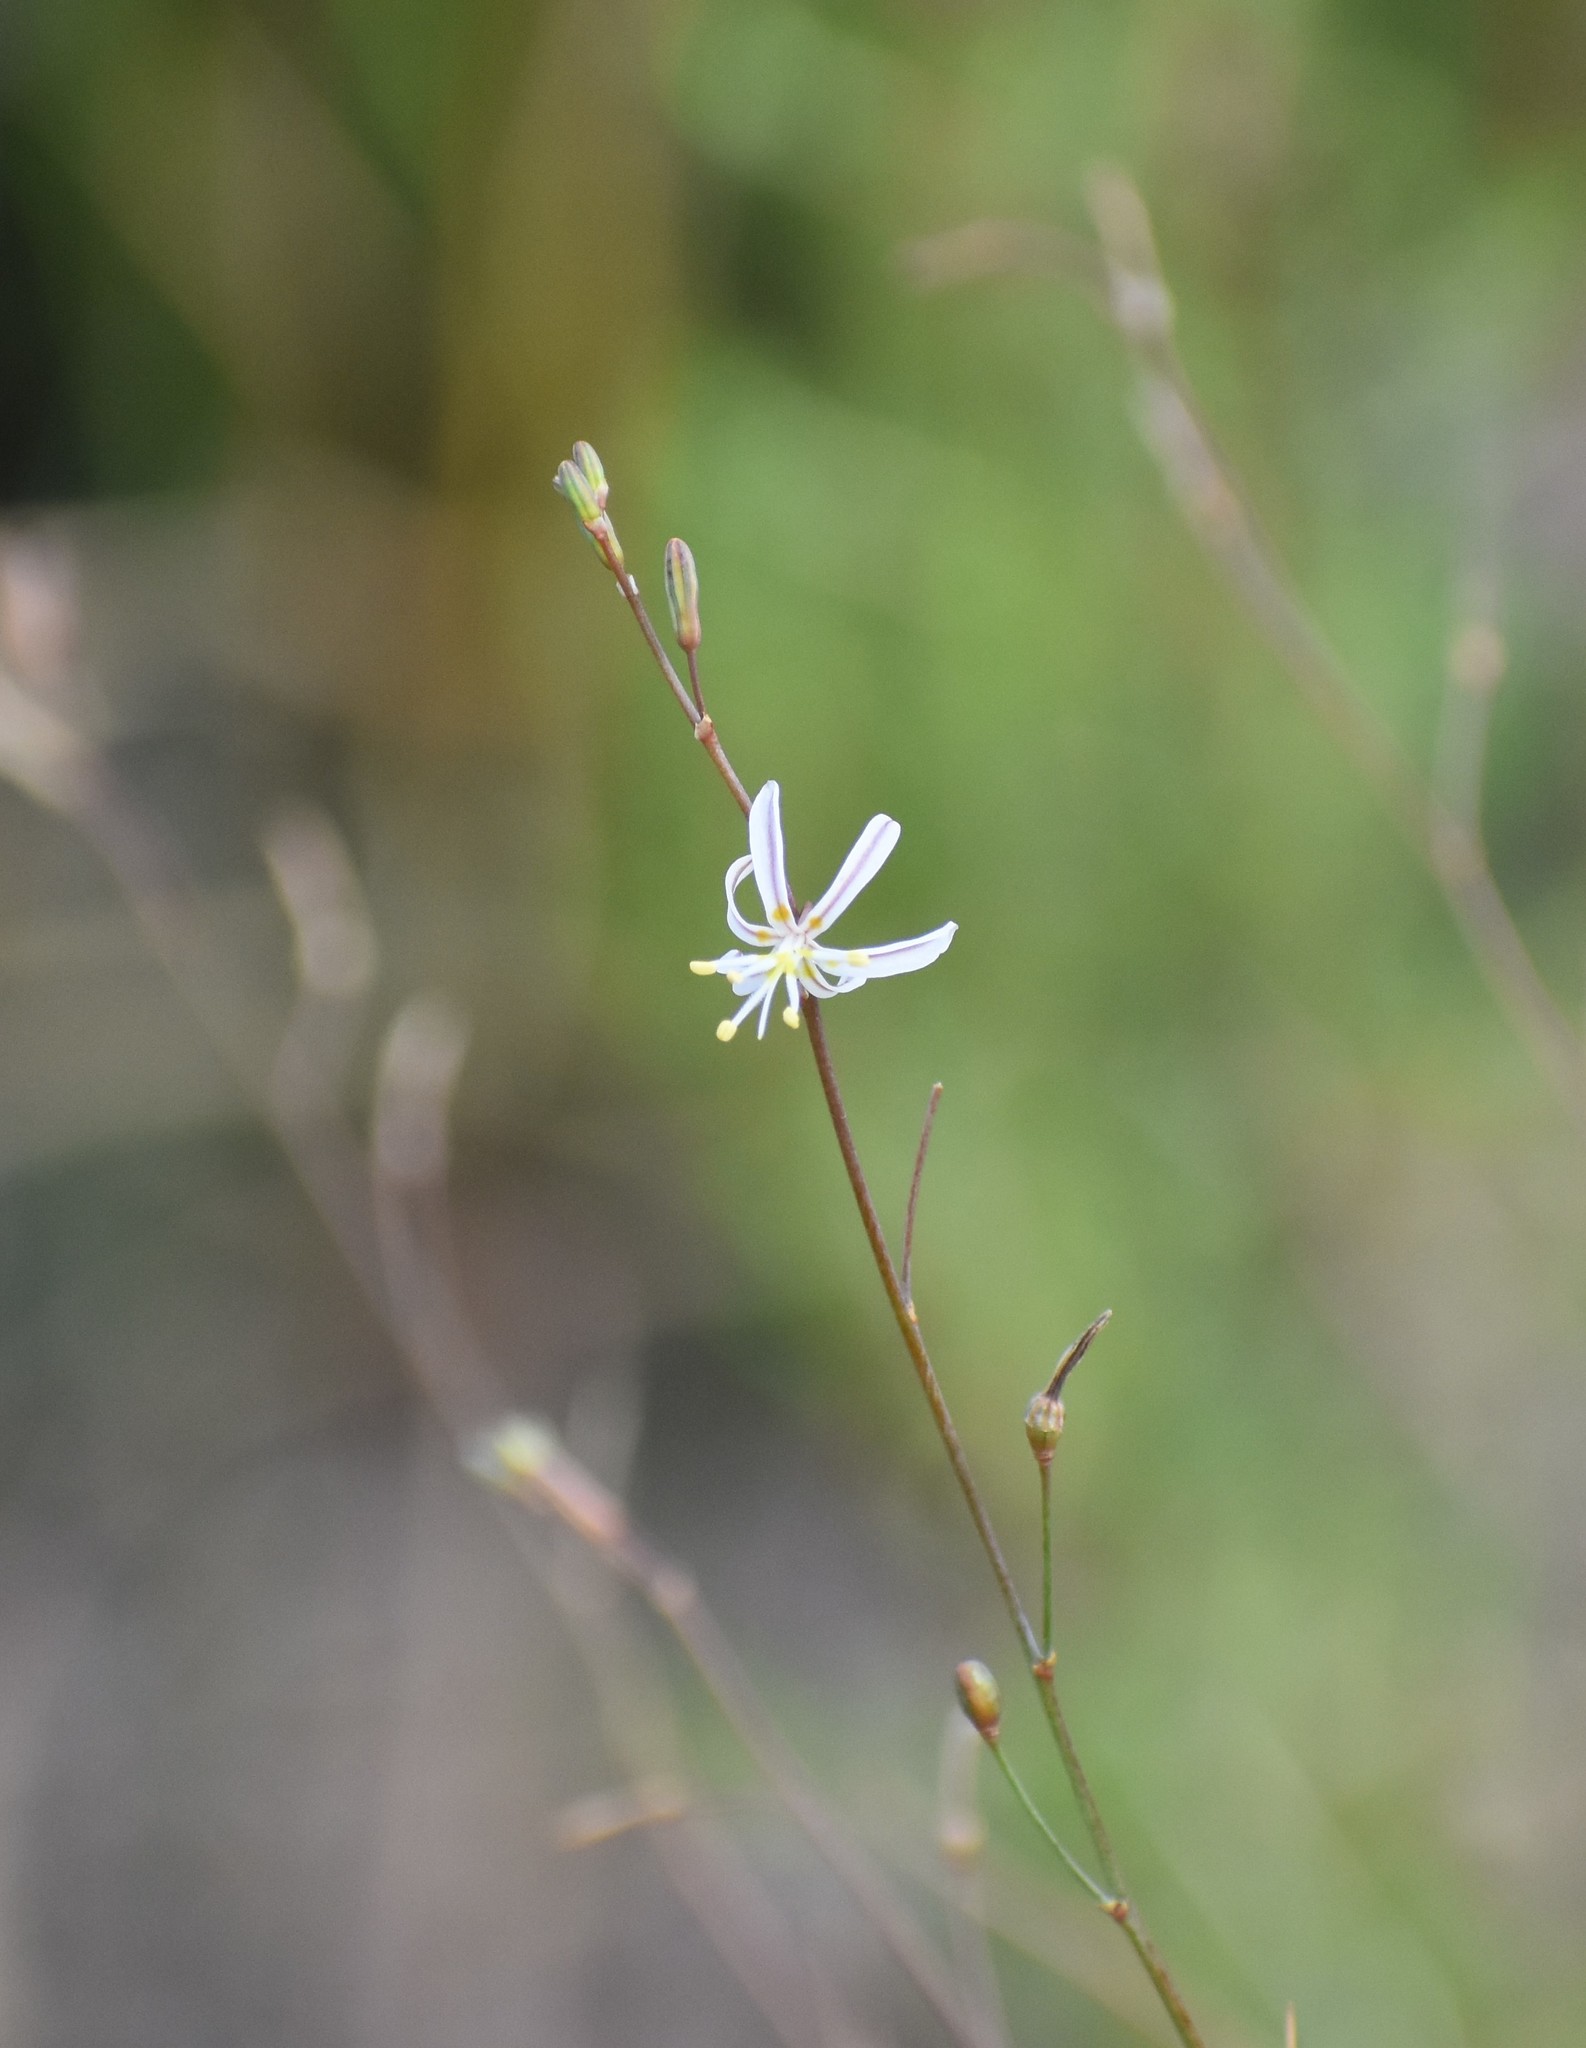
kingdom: Plantae
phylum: Tracheophyta
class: Liliopsida
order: Asparagales
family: Asphodelaceae
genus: Caesia
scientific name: Caesia contorta
